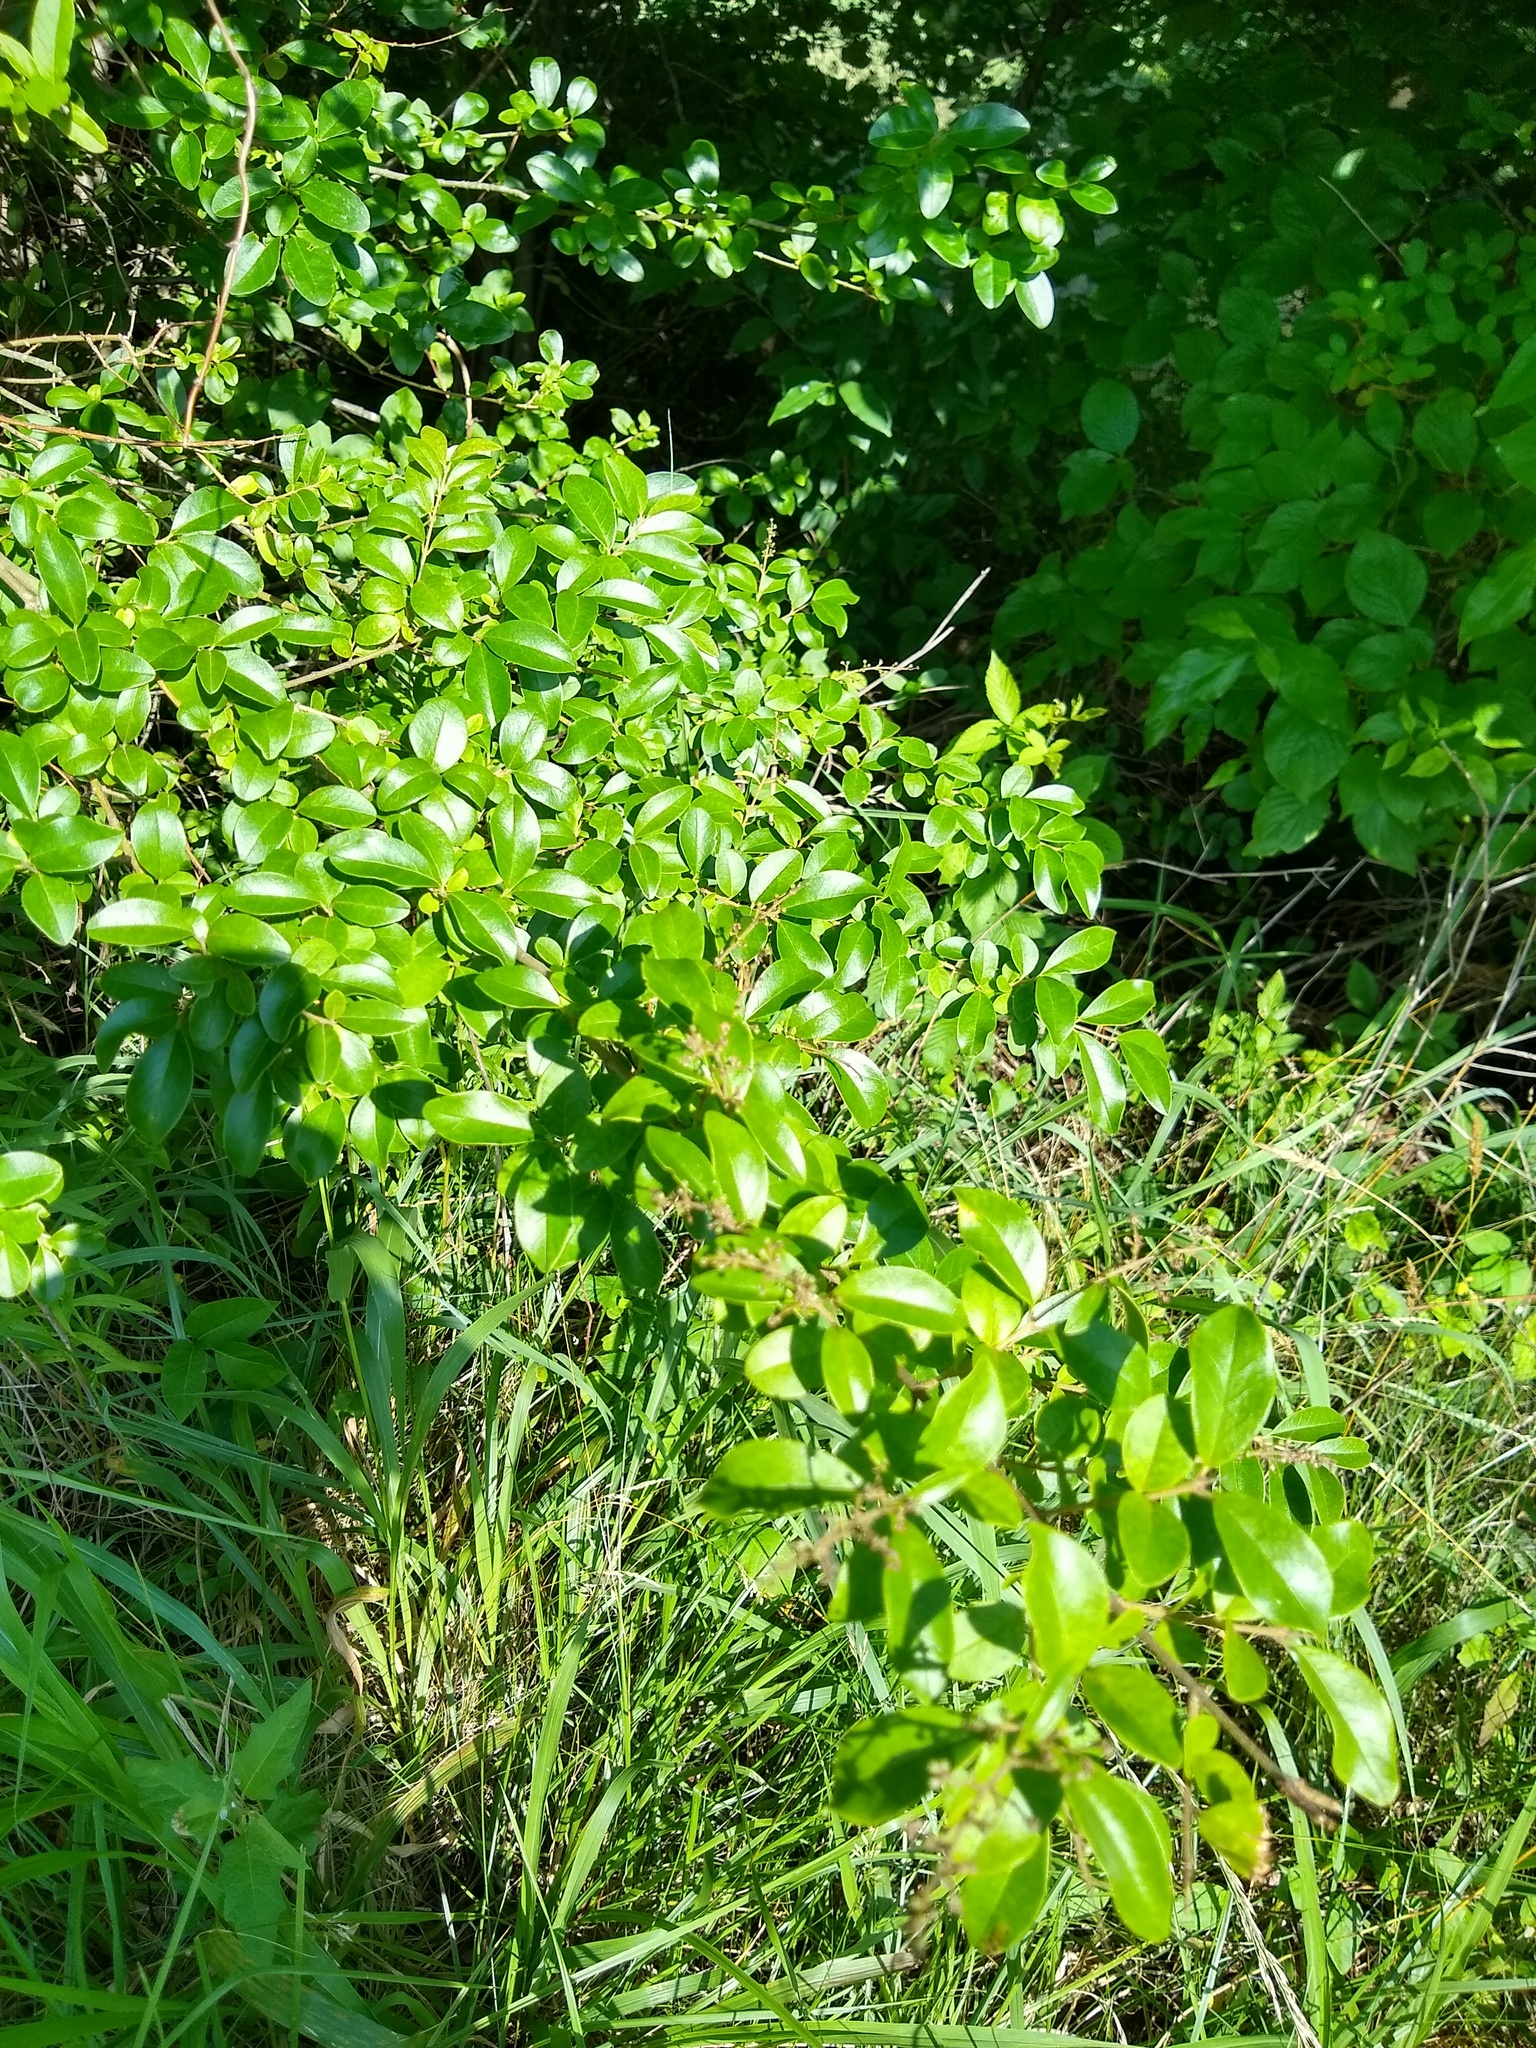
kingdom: Plantae
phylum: Tracheophyta
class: Magnoliopsida
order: Lamiales
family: Oleaceae
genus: Ligustrum
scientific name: Ligustrum sinense
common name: Chinese privet
